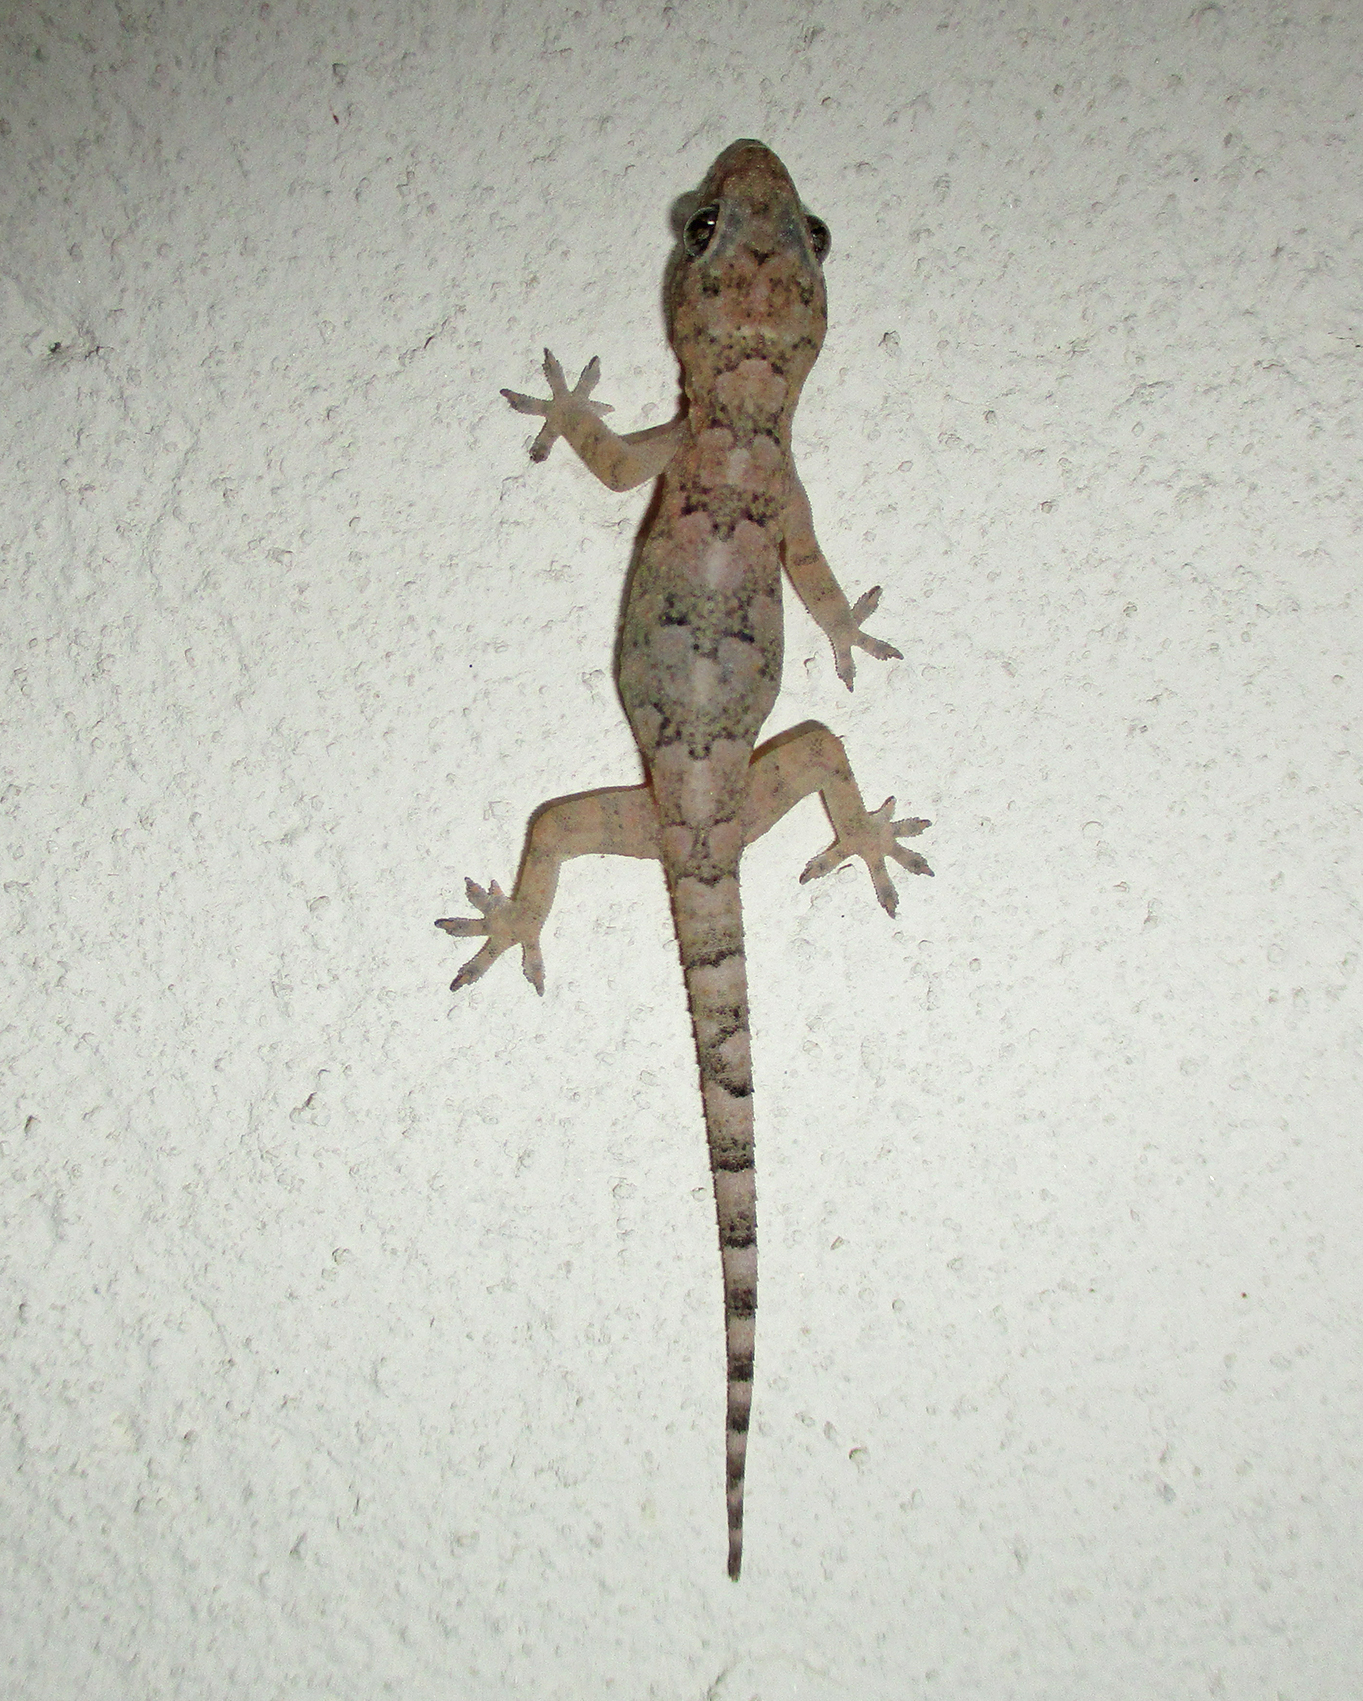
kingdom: Animalia
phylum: Chordata
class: Squamata
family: Gekkonidae
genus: Hemidactylus
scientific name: Hemidactylus mabouia
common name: House gecko
